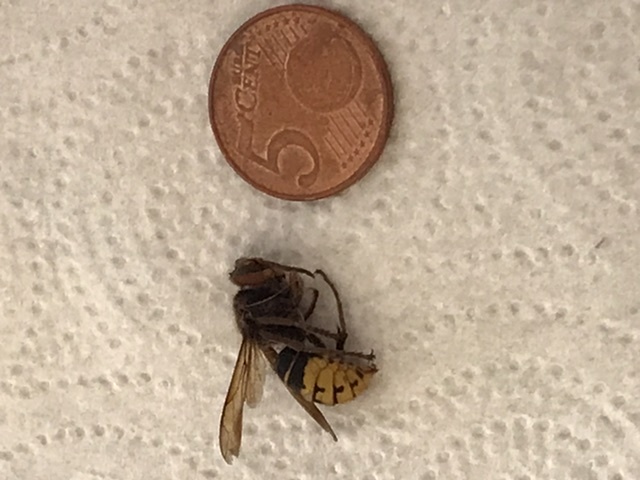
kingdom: Animalia
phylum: Arthropoda
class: Insecta
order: Hymenoptera
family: Vespidae
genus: Vespa
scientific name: Vespa crabro
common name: Hornet
